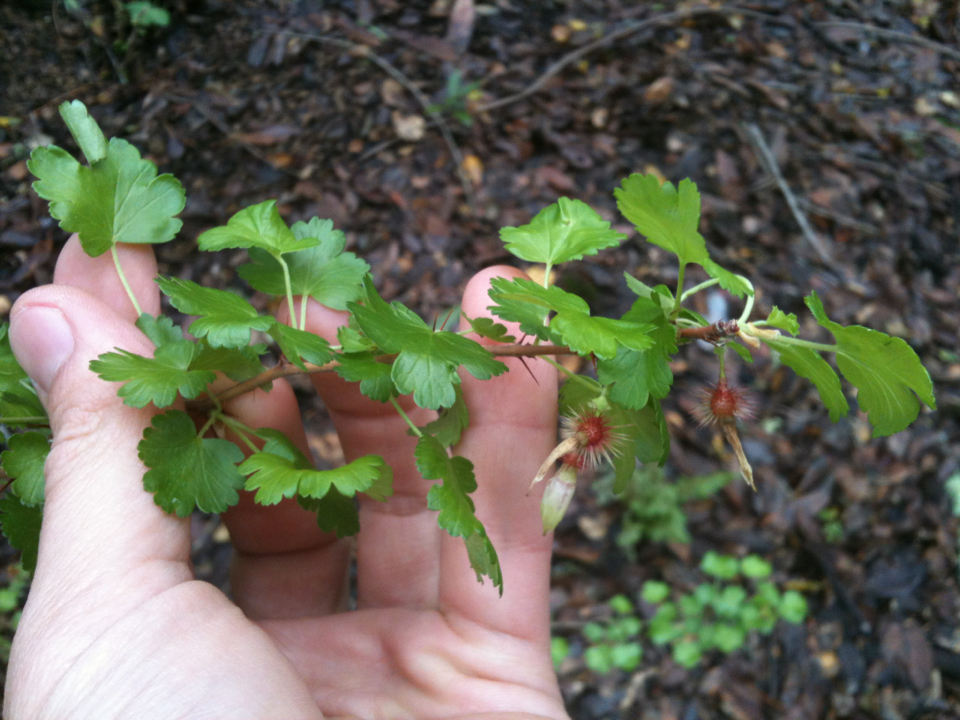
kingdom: Plantae
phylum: Tracheophyta
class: Magnoliopsida
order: Saxifragales
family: Grossulariaceae
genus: Ribes
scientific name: Ribes californicum
